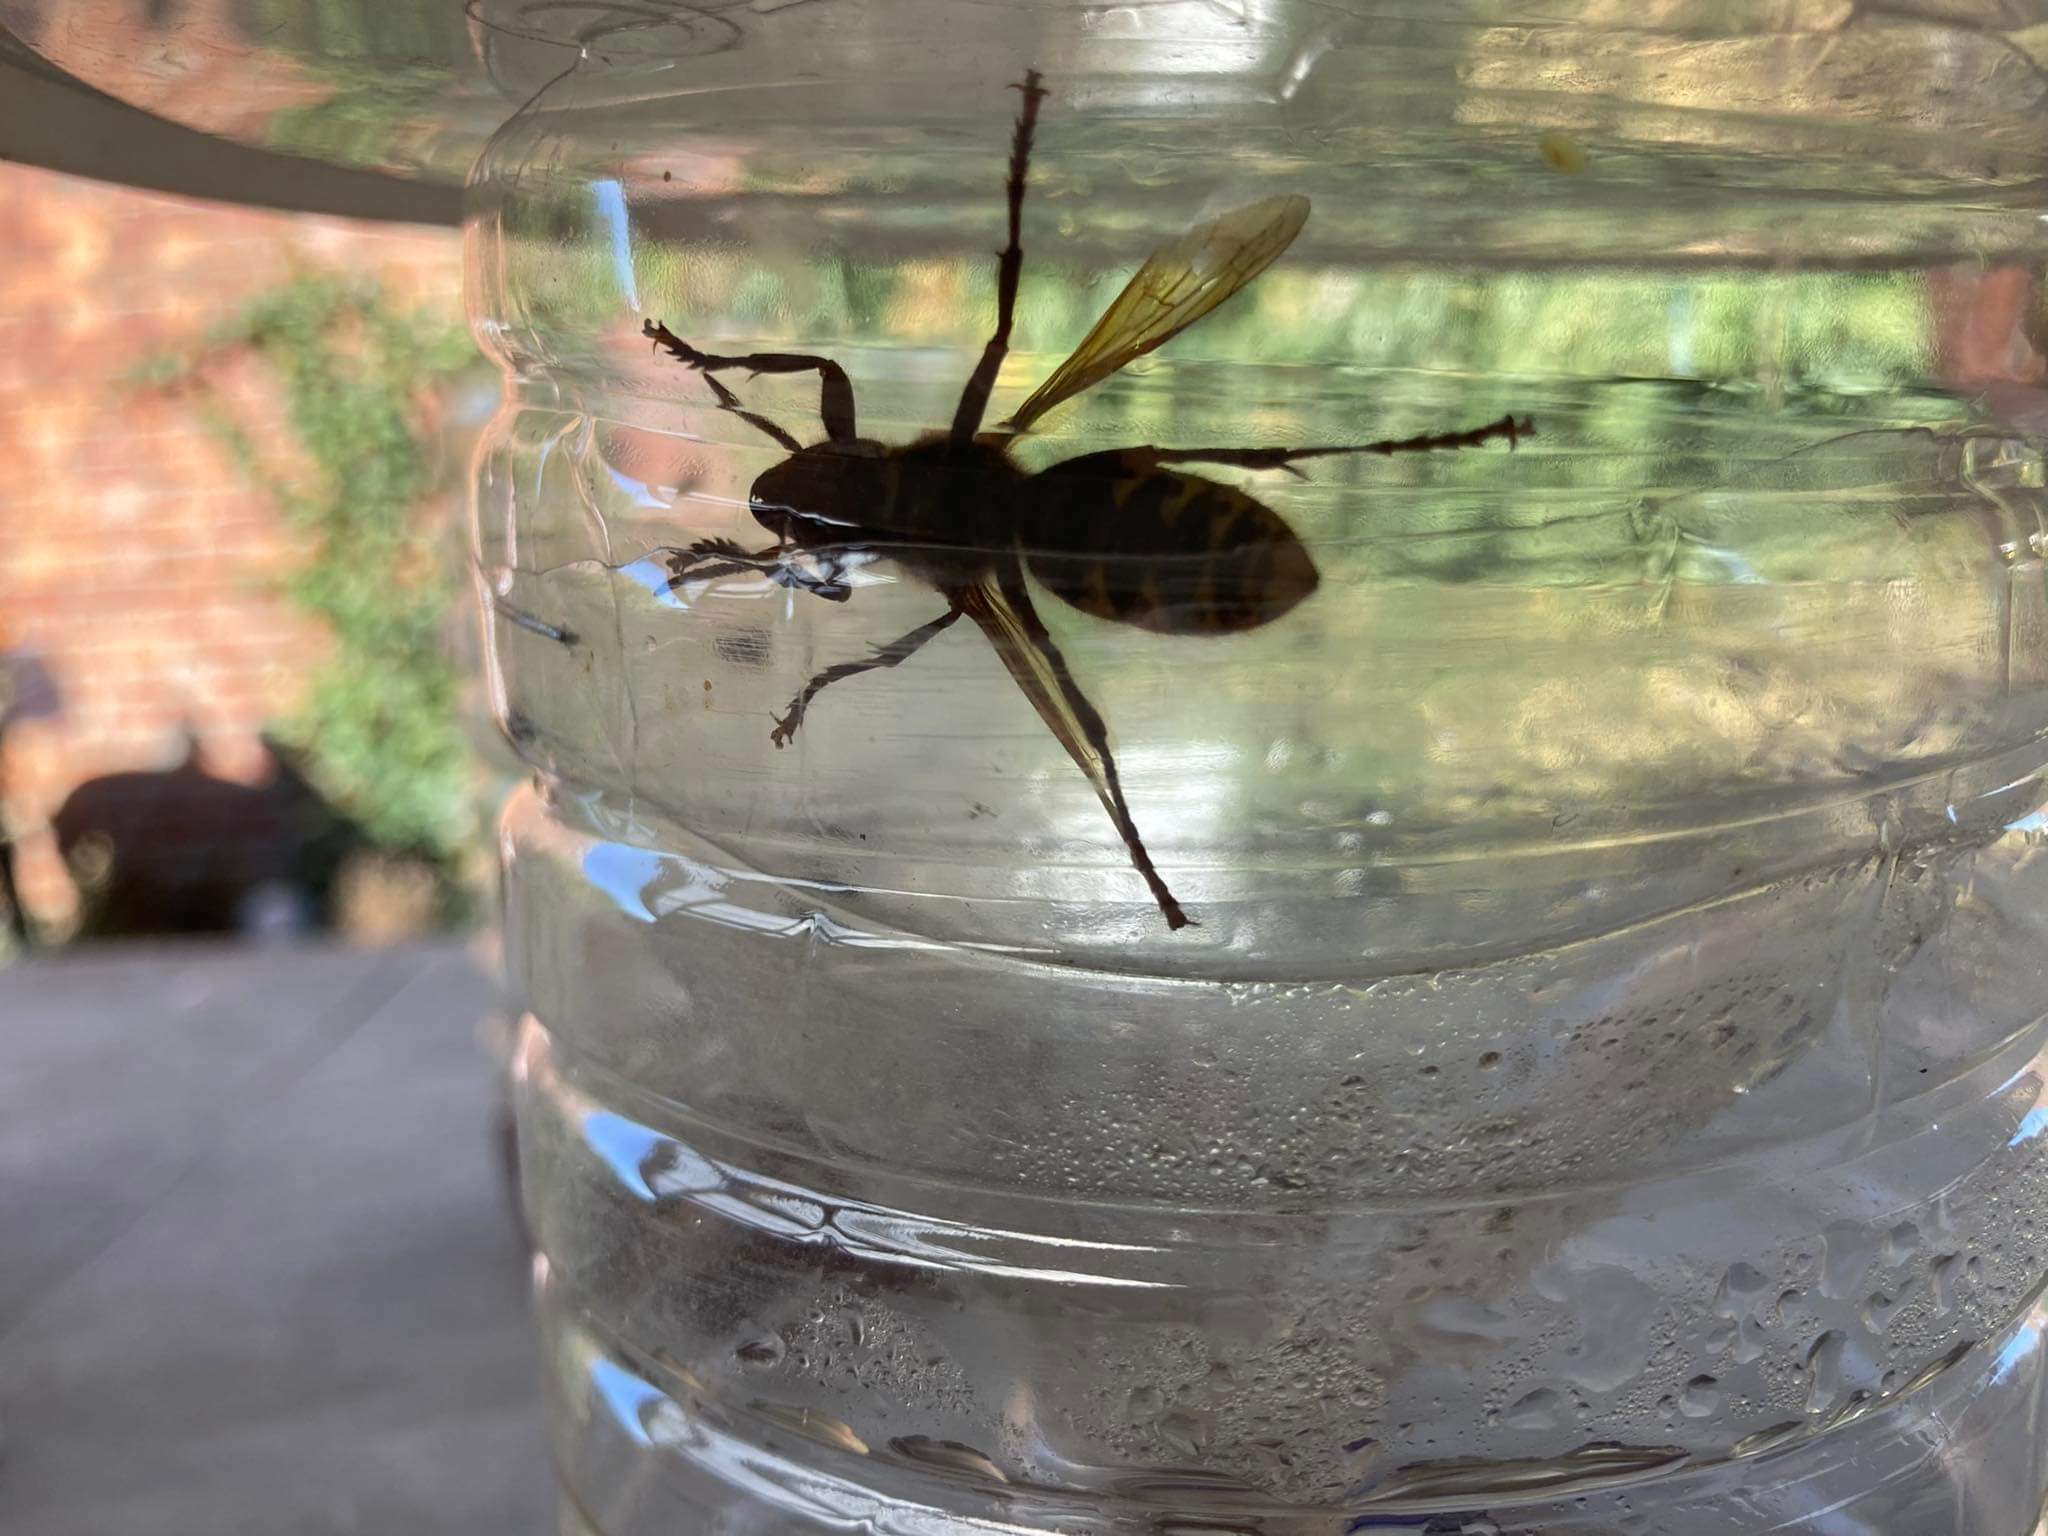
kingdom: Animalia
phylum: Arthropoda
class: Insecta
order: Hymenoptera
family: Vespidae
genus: Vespa
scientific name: Vespa crabro
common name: Hornet
